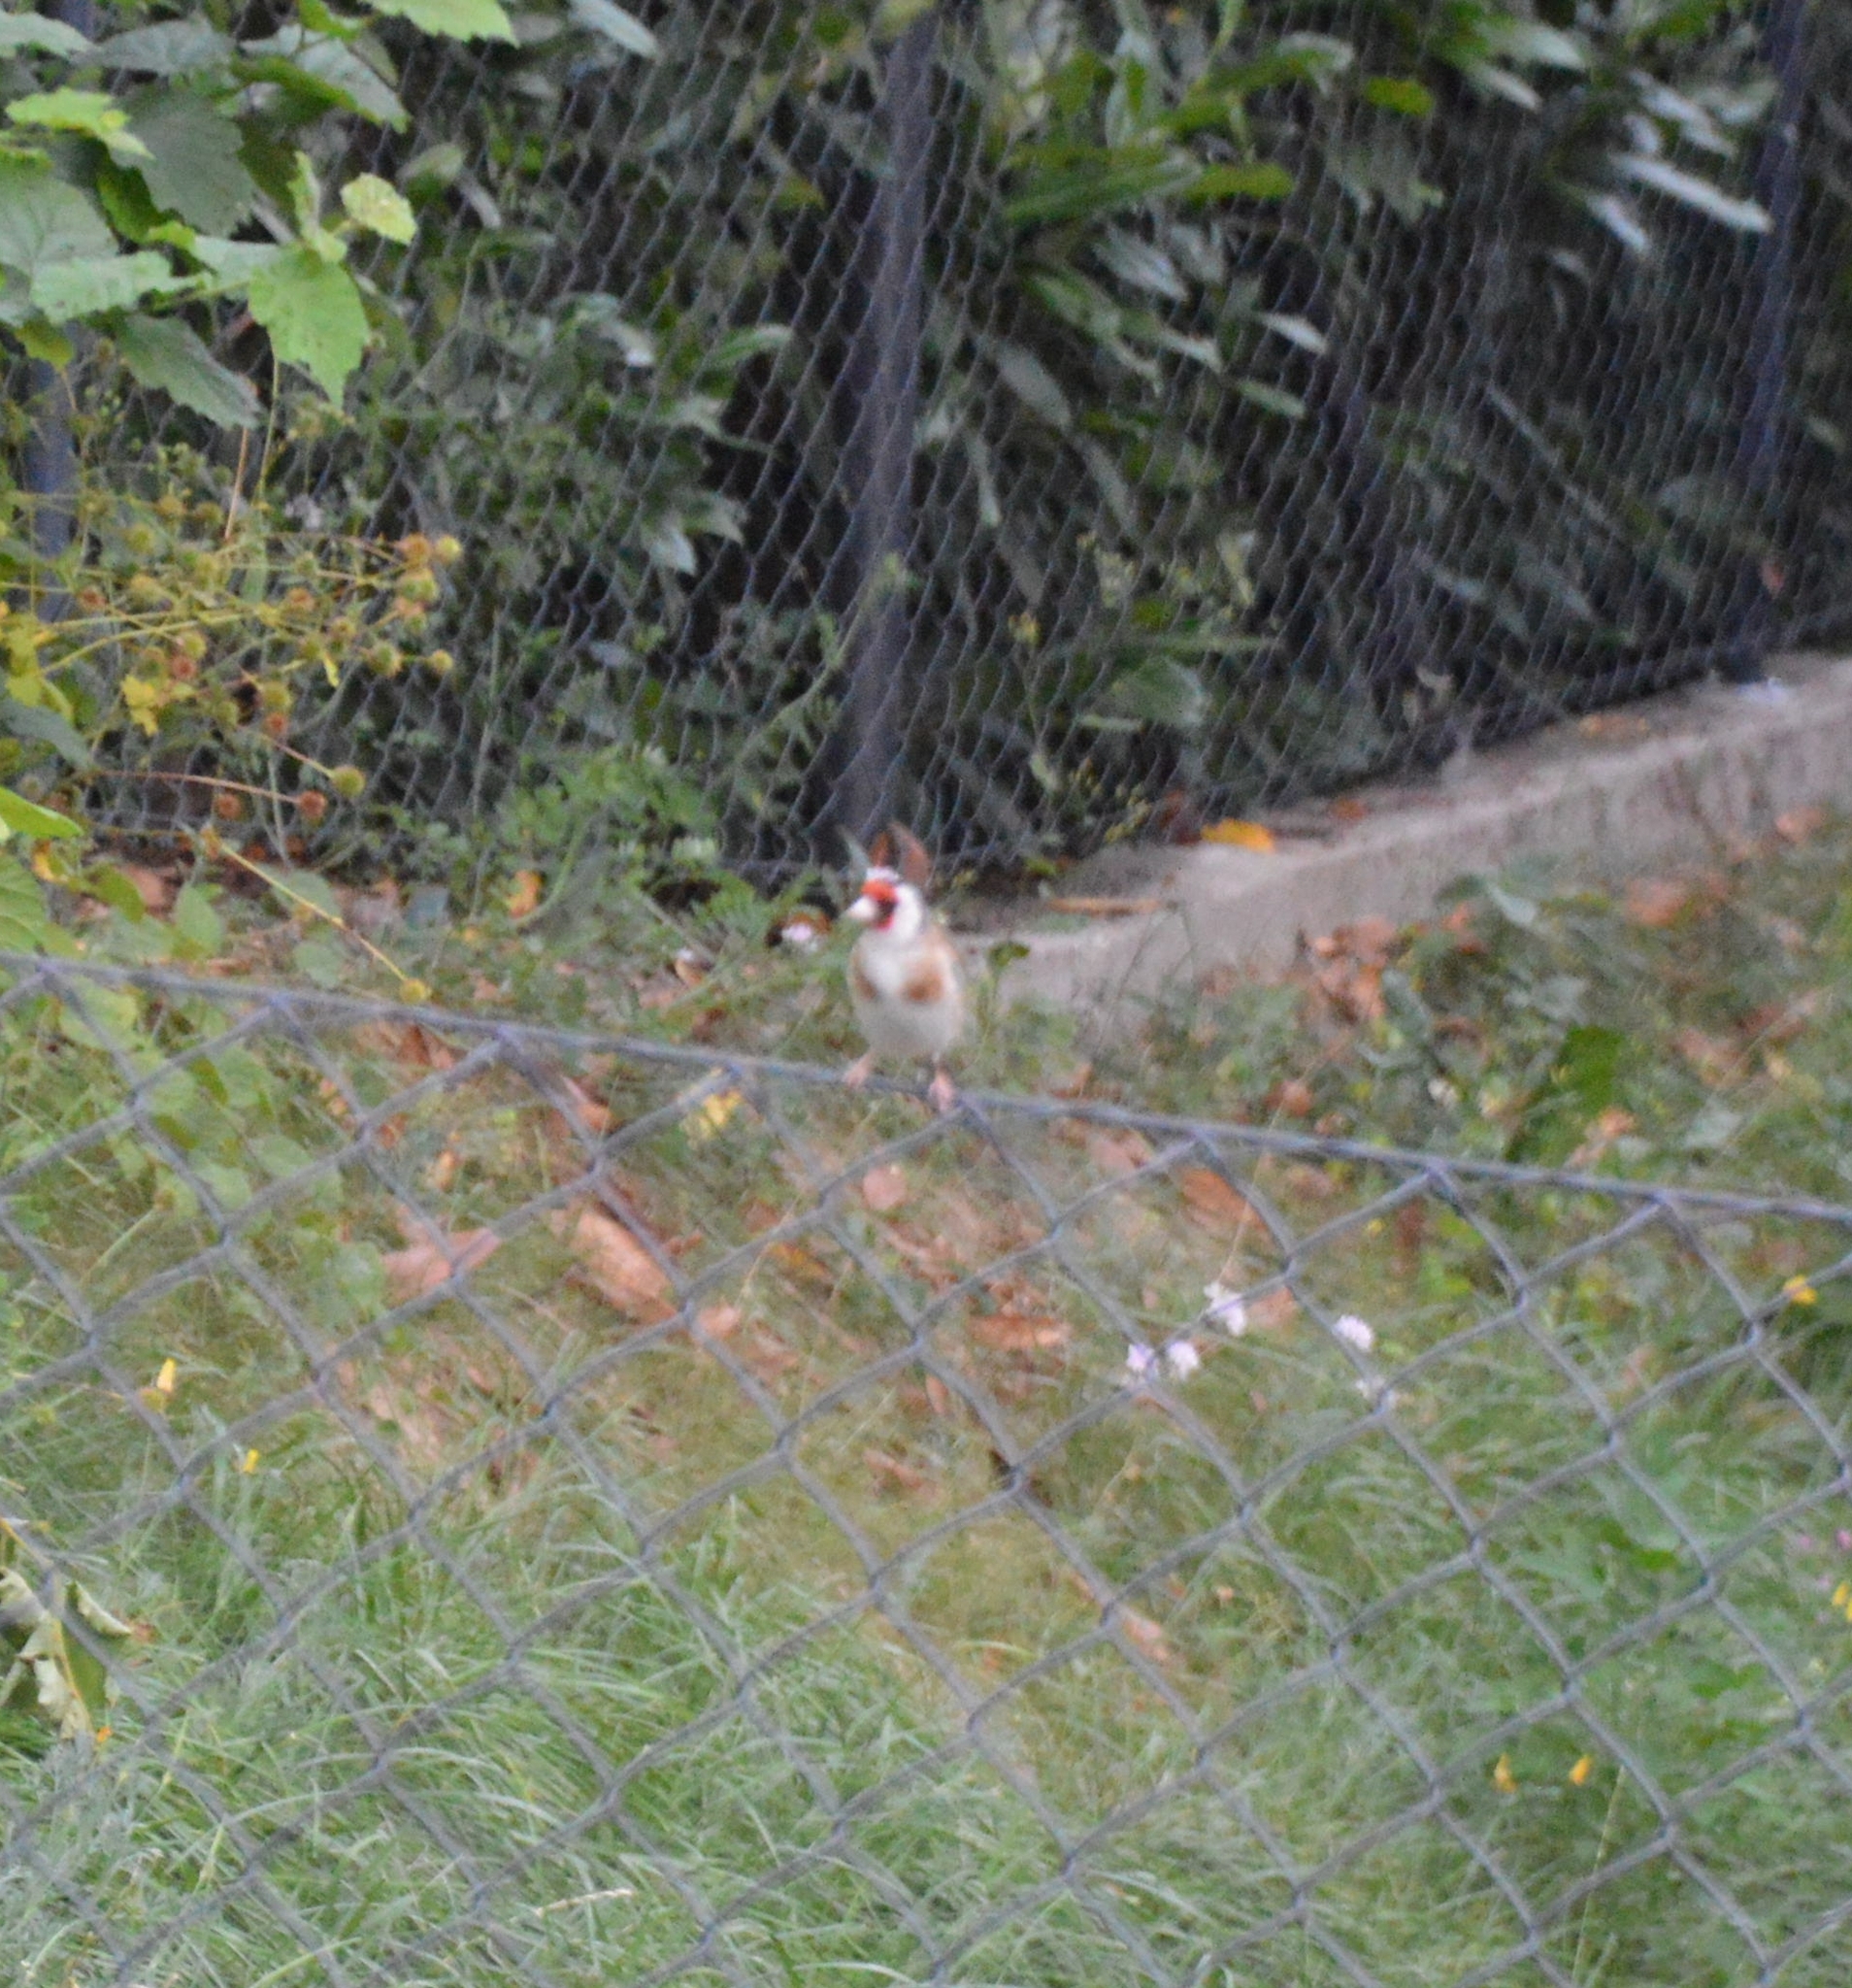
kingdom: Animalia
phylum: Chordata
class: Aves
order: Passeriformes
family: Fringillidae
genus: Carduelis
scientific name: Carduelis carduelis
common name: European goldfinch
